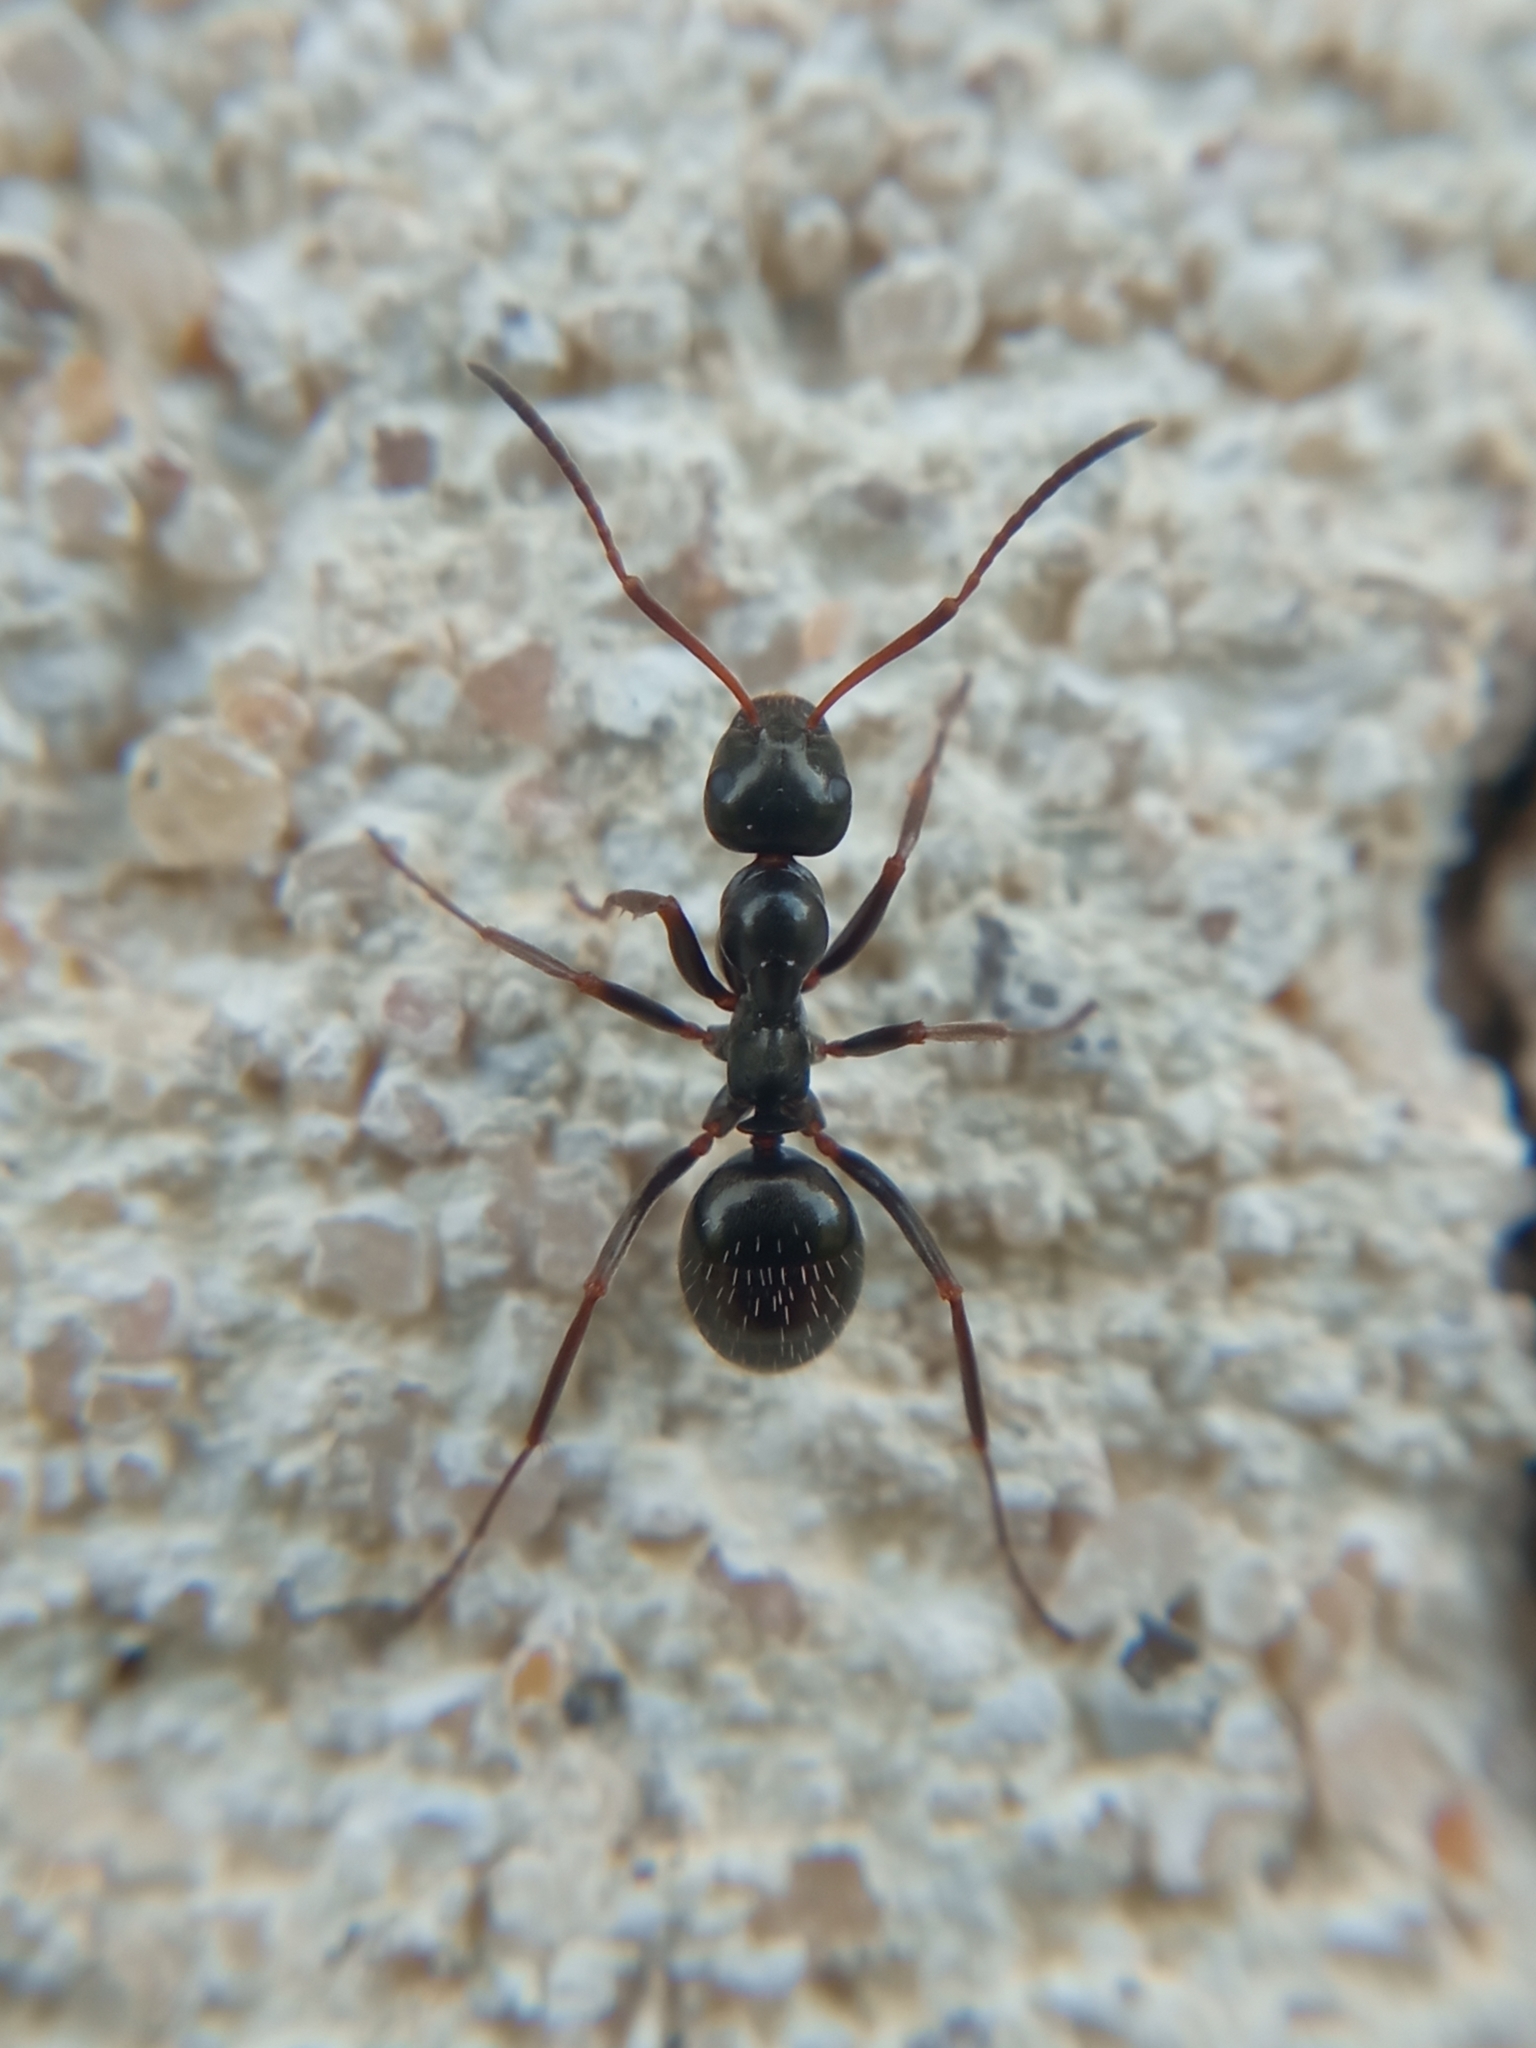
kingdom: Animalia
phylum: Arthropoda
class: Insecta
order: Hymenoptera
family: Formicidae
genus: Formica
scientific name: Formica gagates
